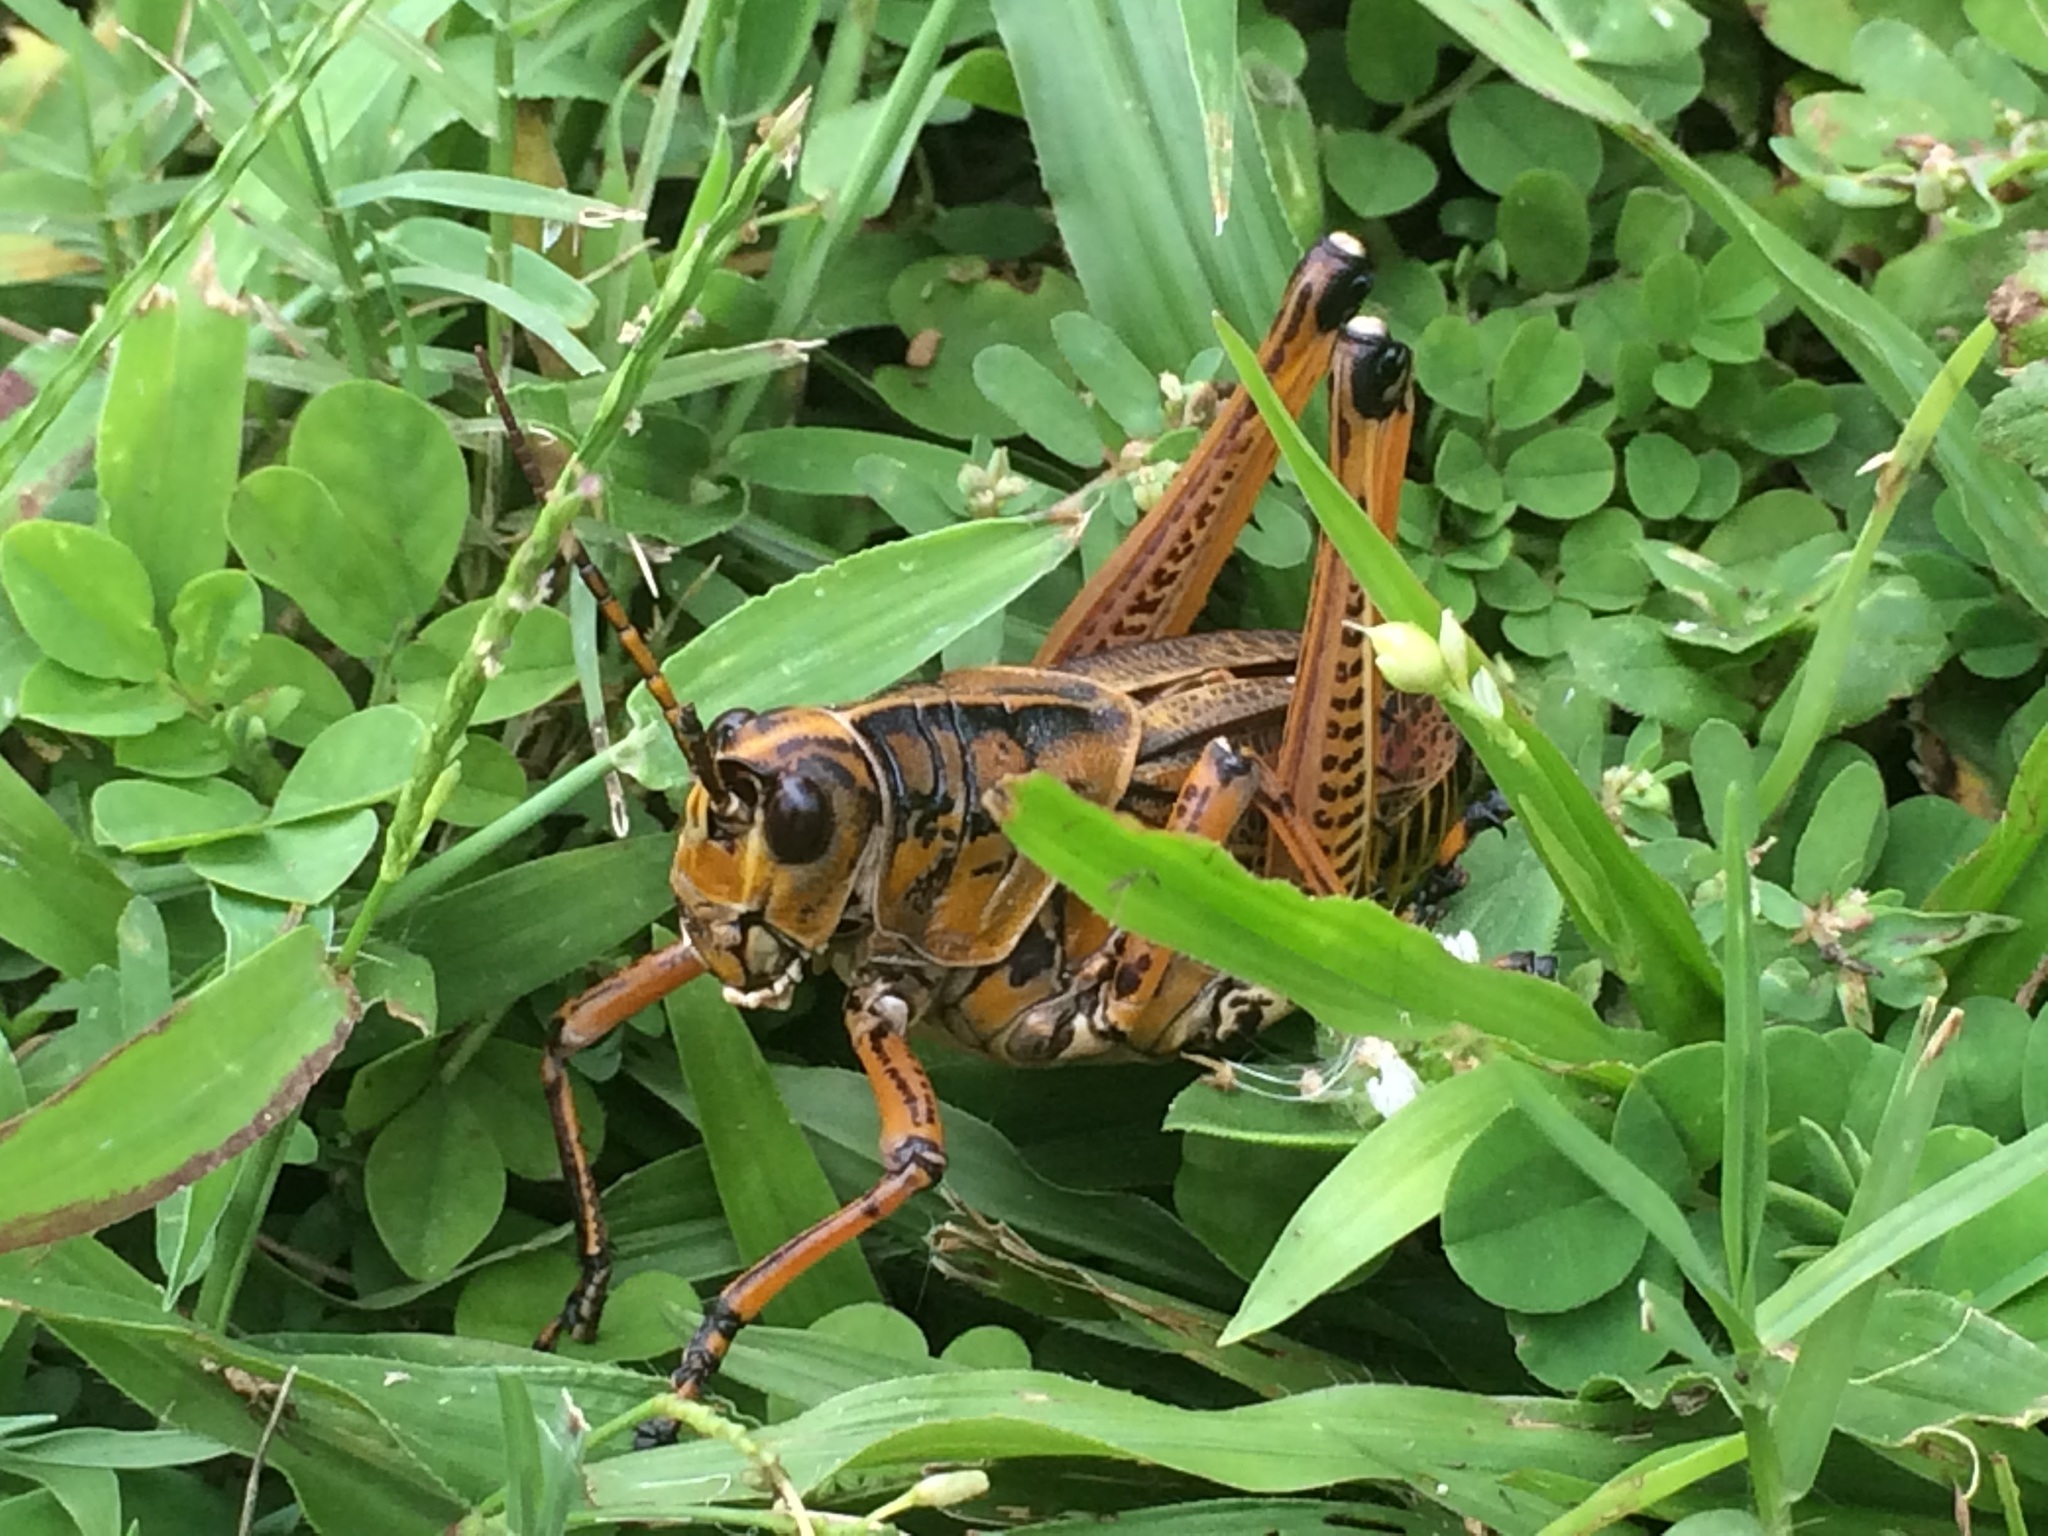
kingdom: Animalia
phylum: Arthropoda
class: Insecta
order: Orthoptera
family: Romaleidae
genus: Romalea
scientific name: Romalea microptera
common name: Eastern lubber grasshopper
